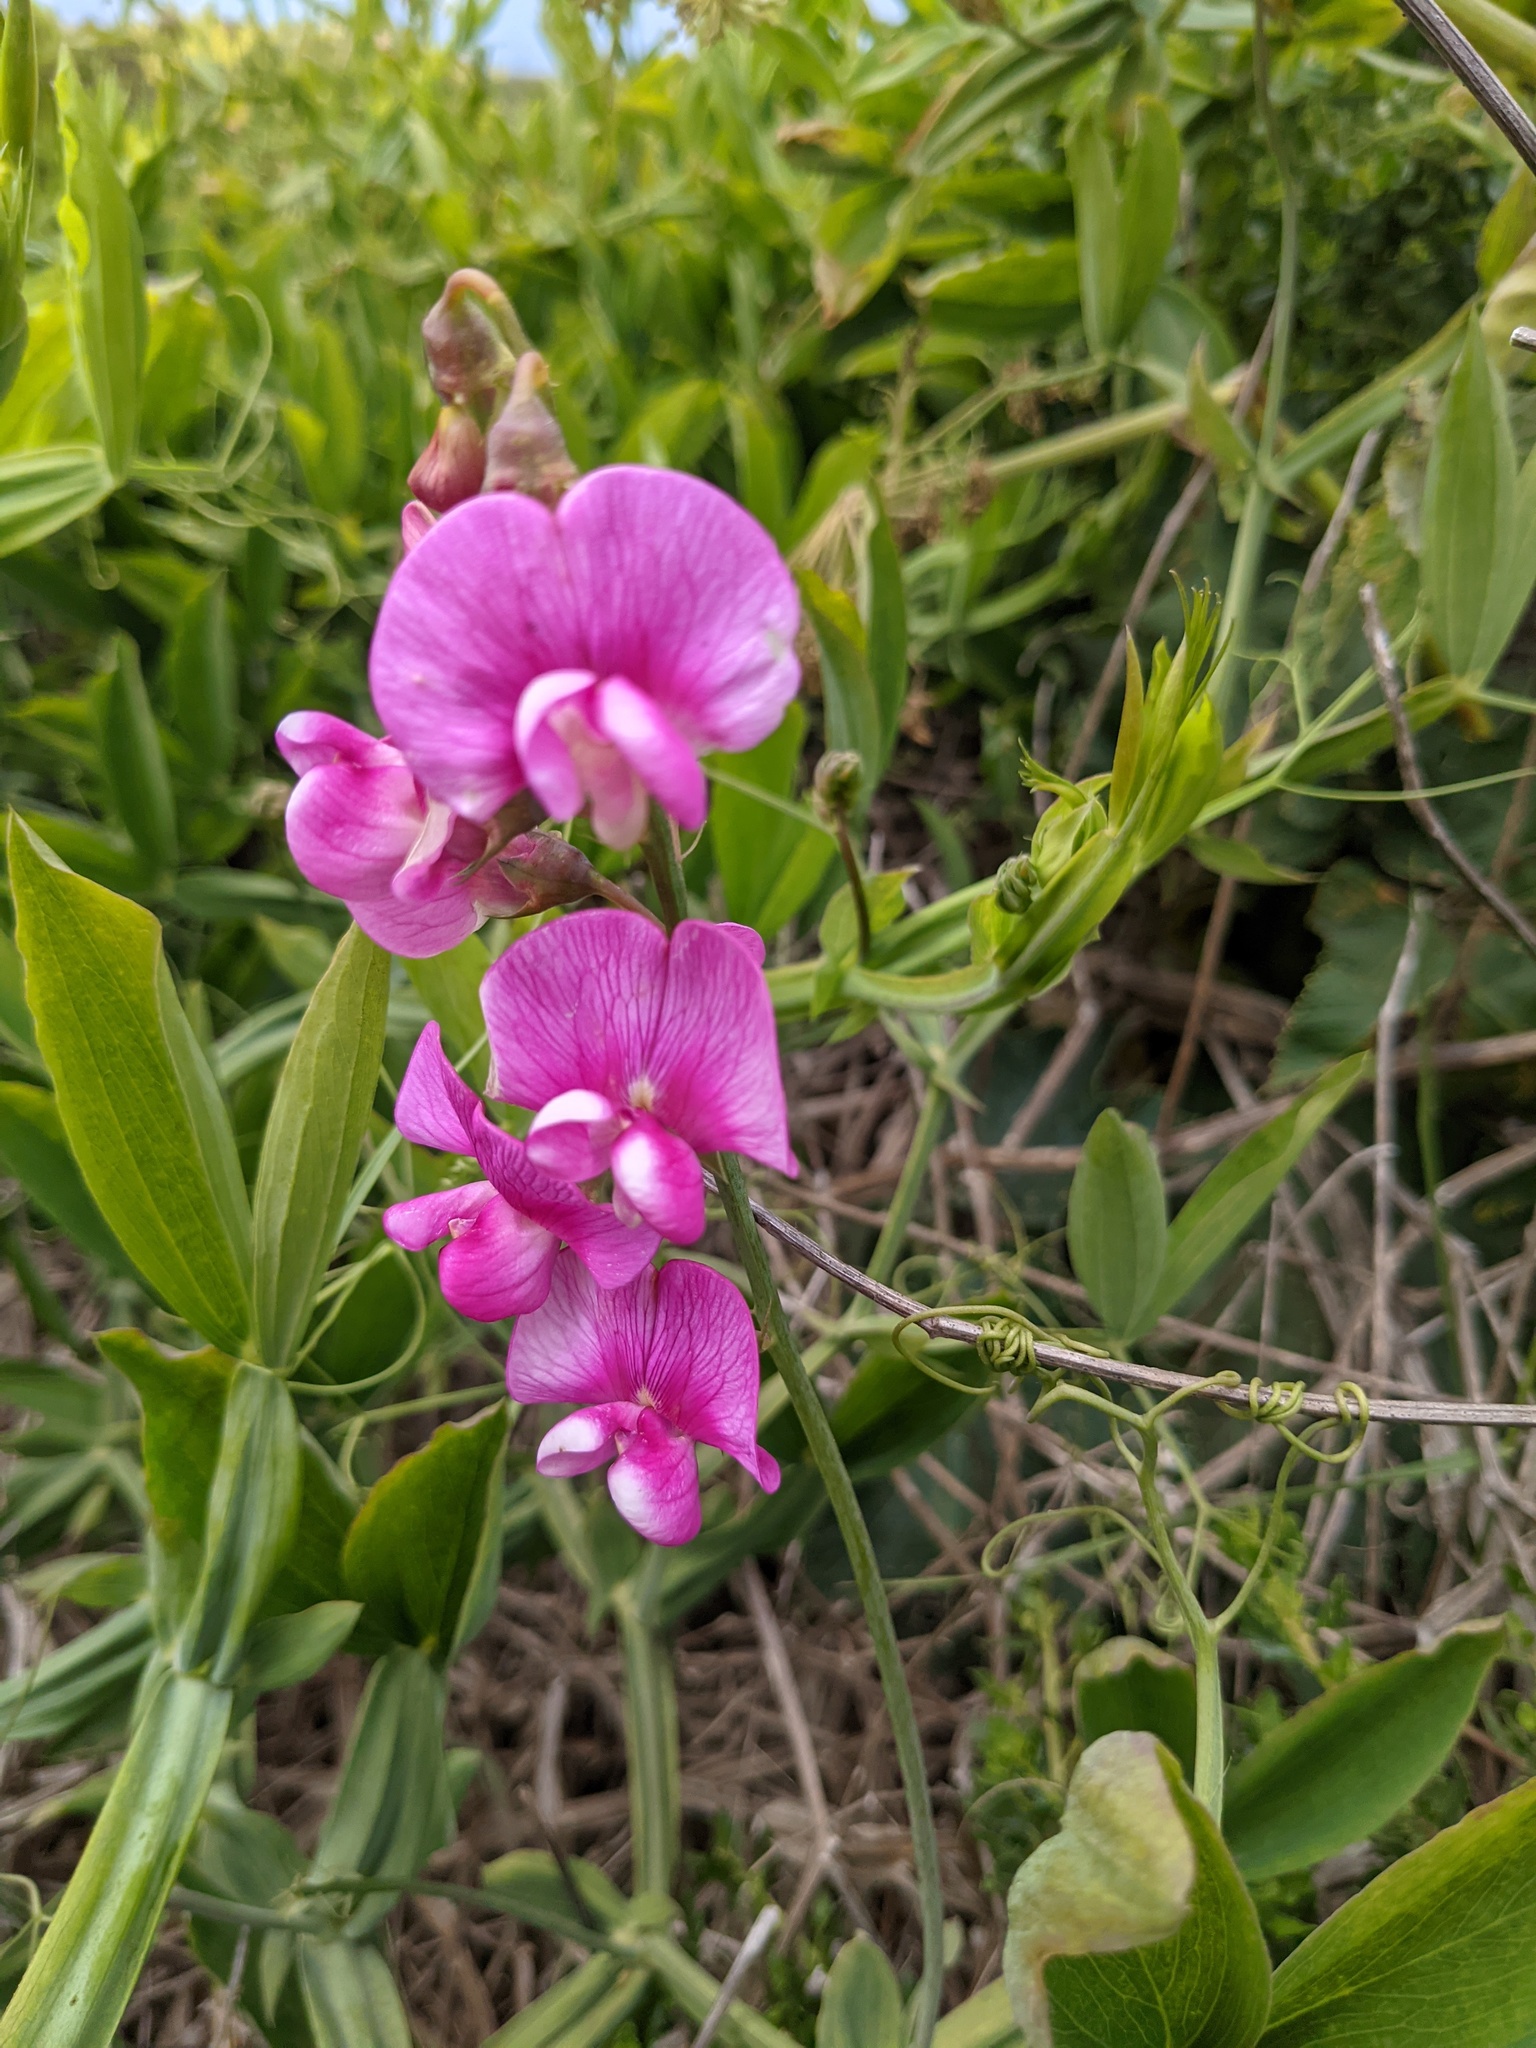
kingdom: Plantae
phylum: Tracheophyta
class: Magnoliopsida
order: Fabales
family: Fabaceae
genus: Lathyrus
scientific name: Lathyrus latifolius
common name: Perennial pea
